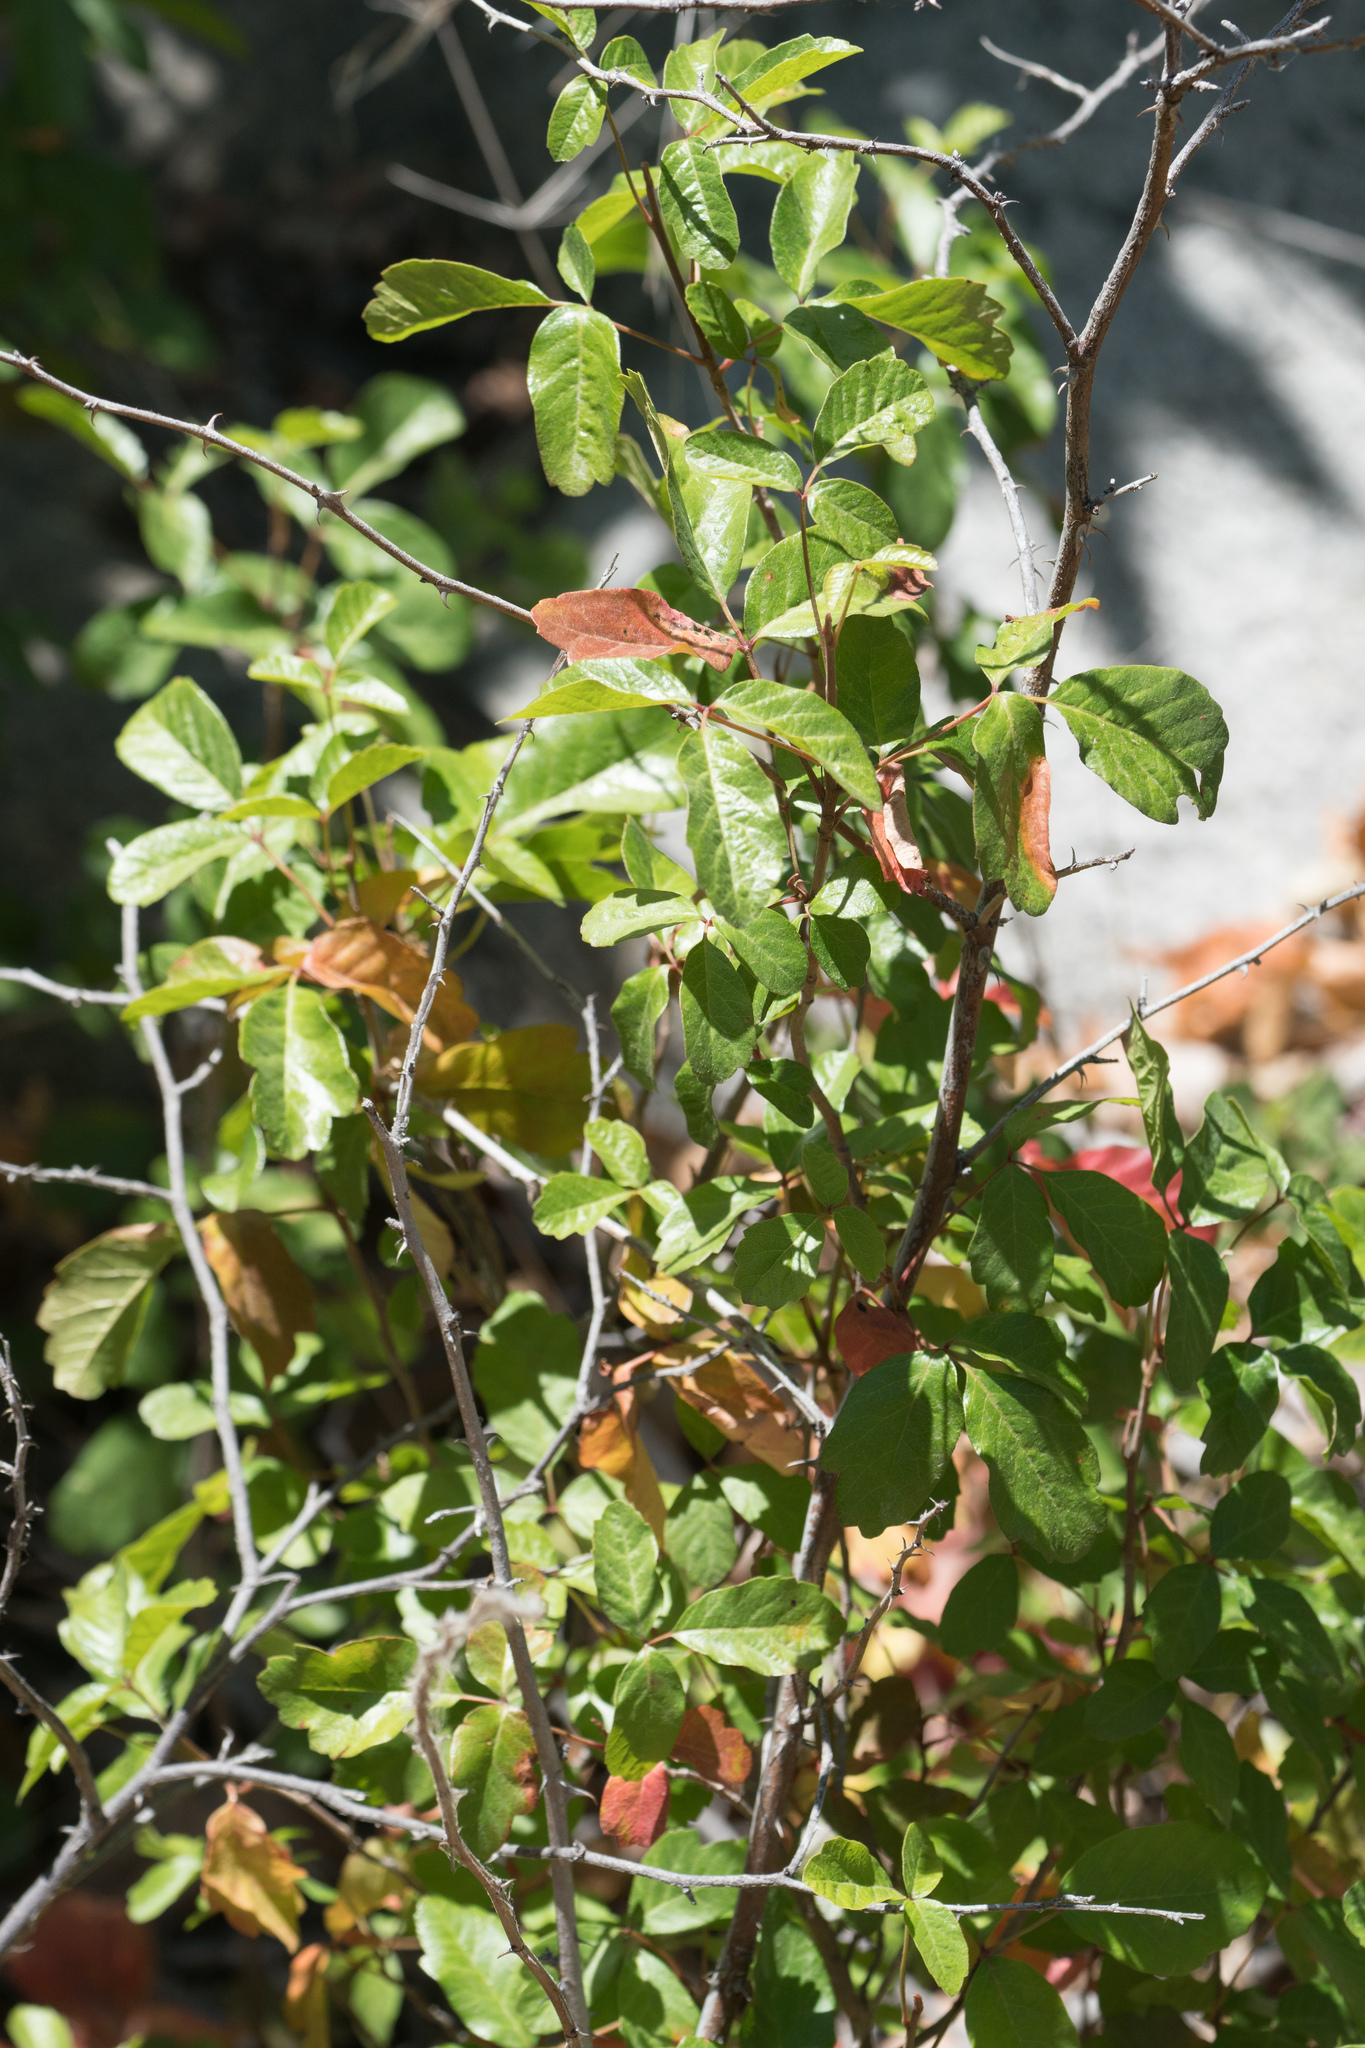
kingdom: Plantae
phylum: Tracheophyta
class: Magnoliopsida
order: Sapindales
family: Anacardiaceae
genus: Toxicodendron
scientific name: Toxicodendron diversilobum
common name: Pacific poison-oak
